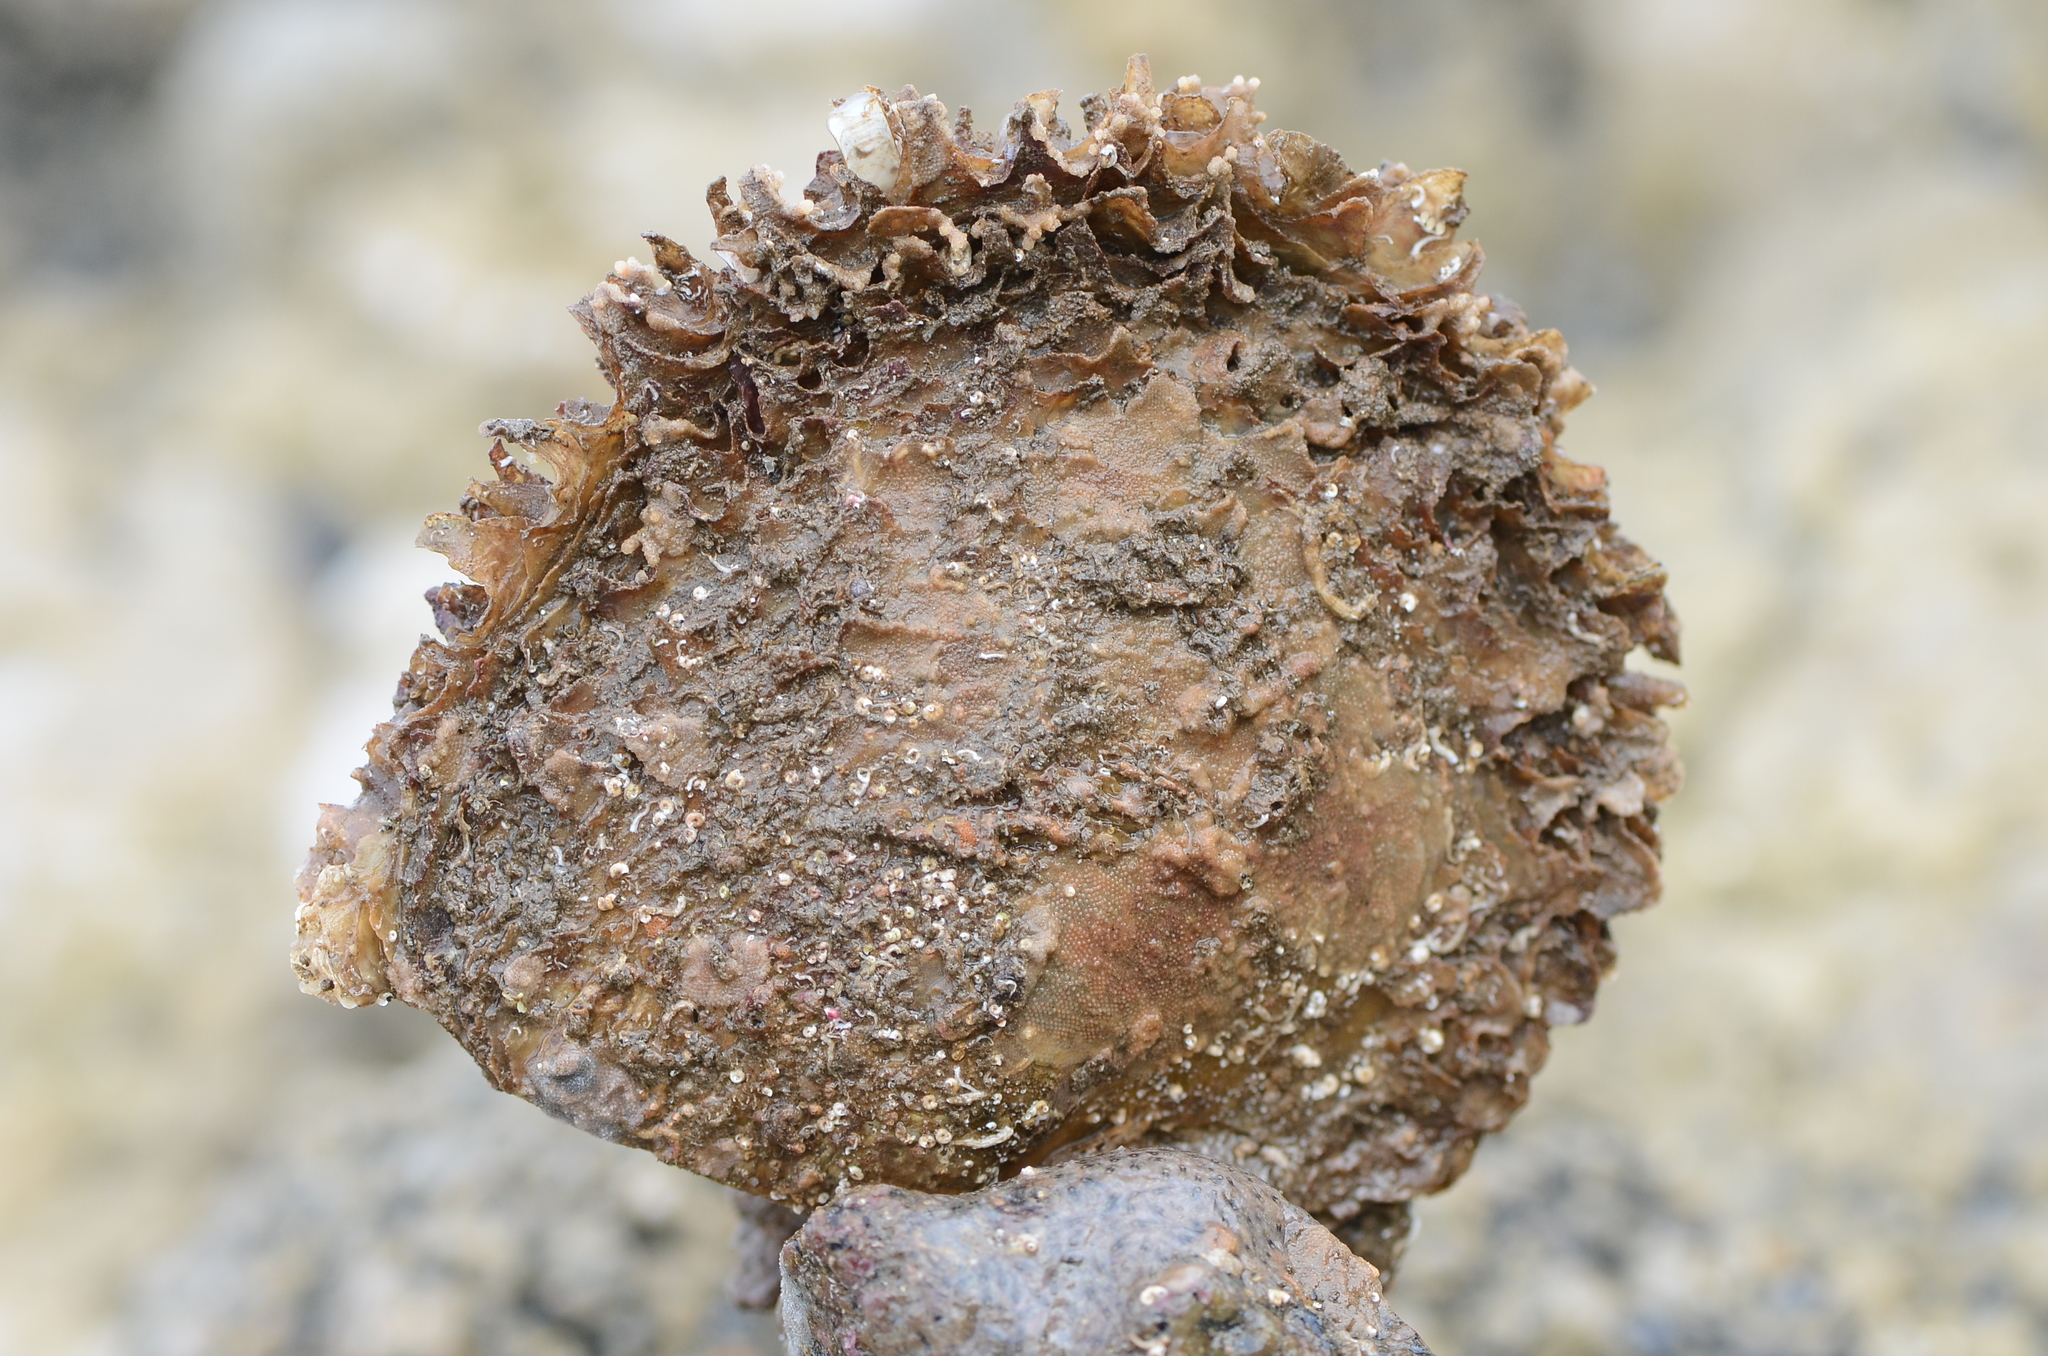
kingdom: Animalia
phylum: Mollusca
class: Bivalvia
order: Ostreida
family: Margaritidae
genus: Pinctada
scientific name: Pinctada mazatlanica
